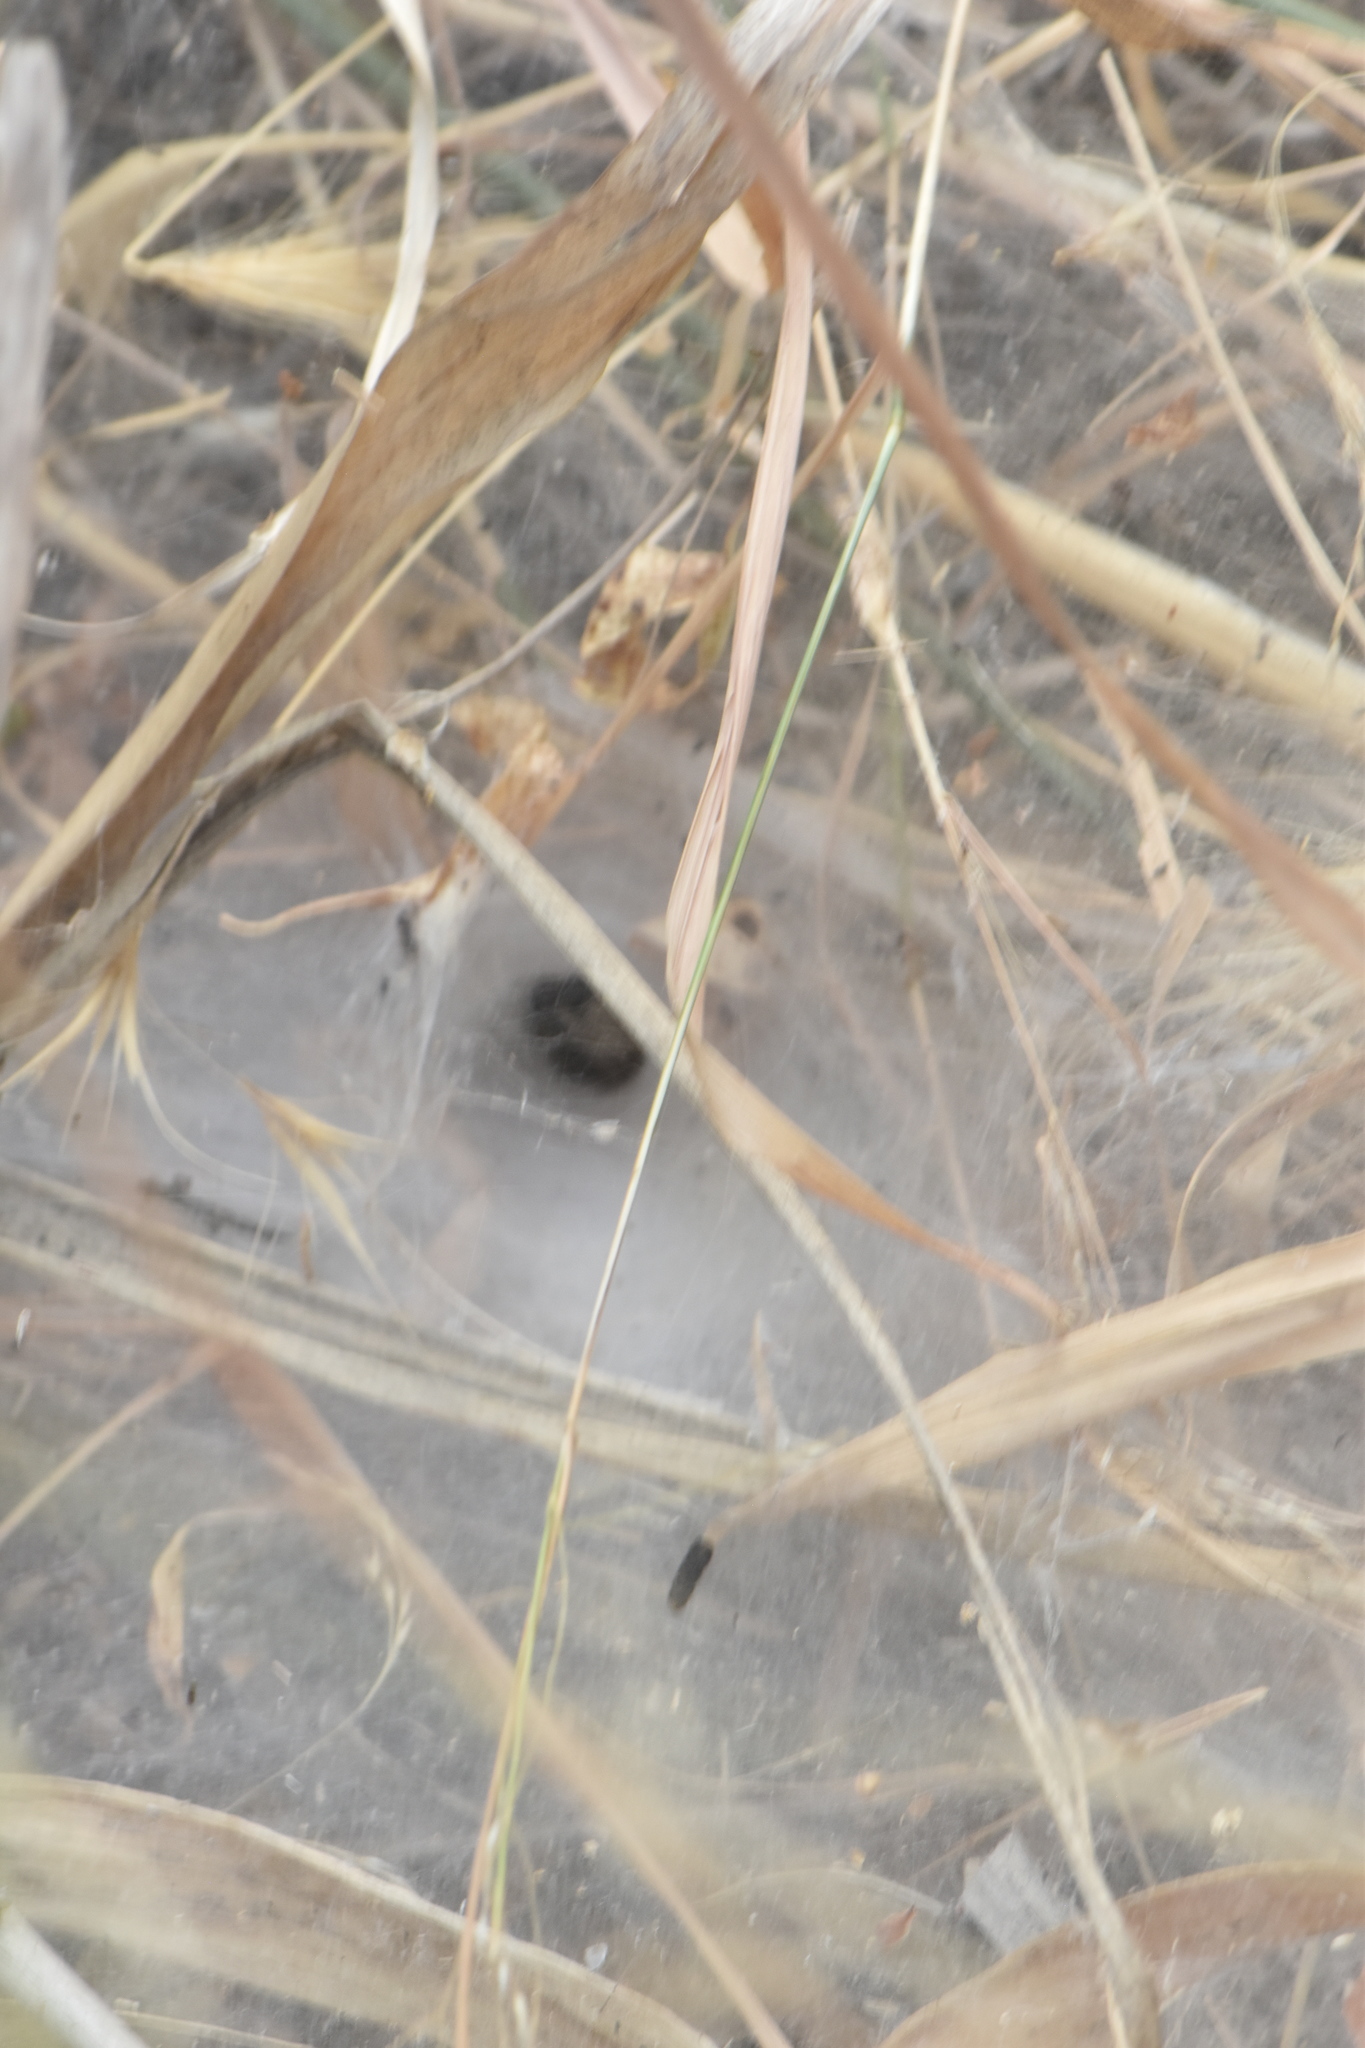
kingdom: Animalia
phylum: Arthropoda
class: Arachnida
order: Araneae
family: Agelenidae
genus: Agelena
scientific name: Agelena labyrinthica
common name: Labyrinth spider
